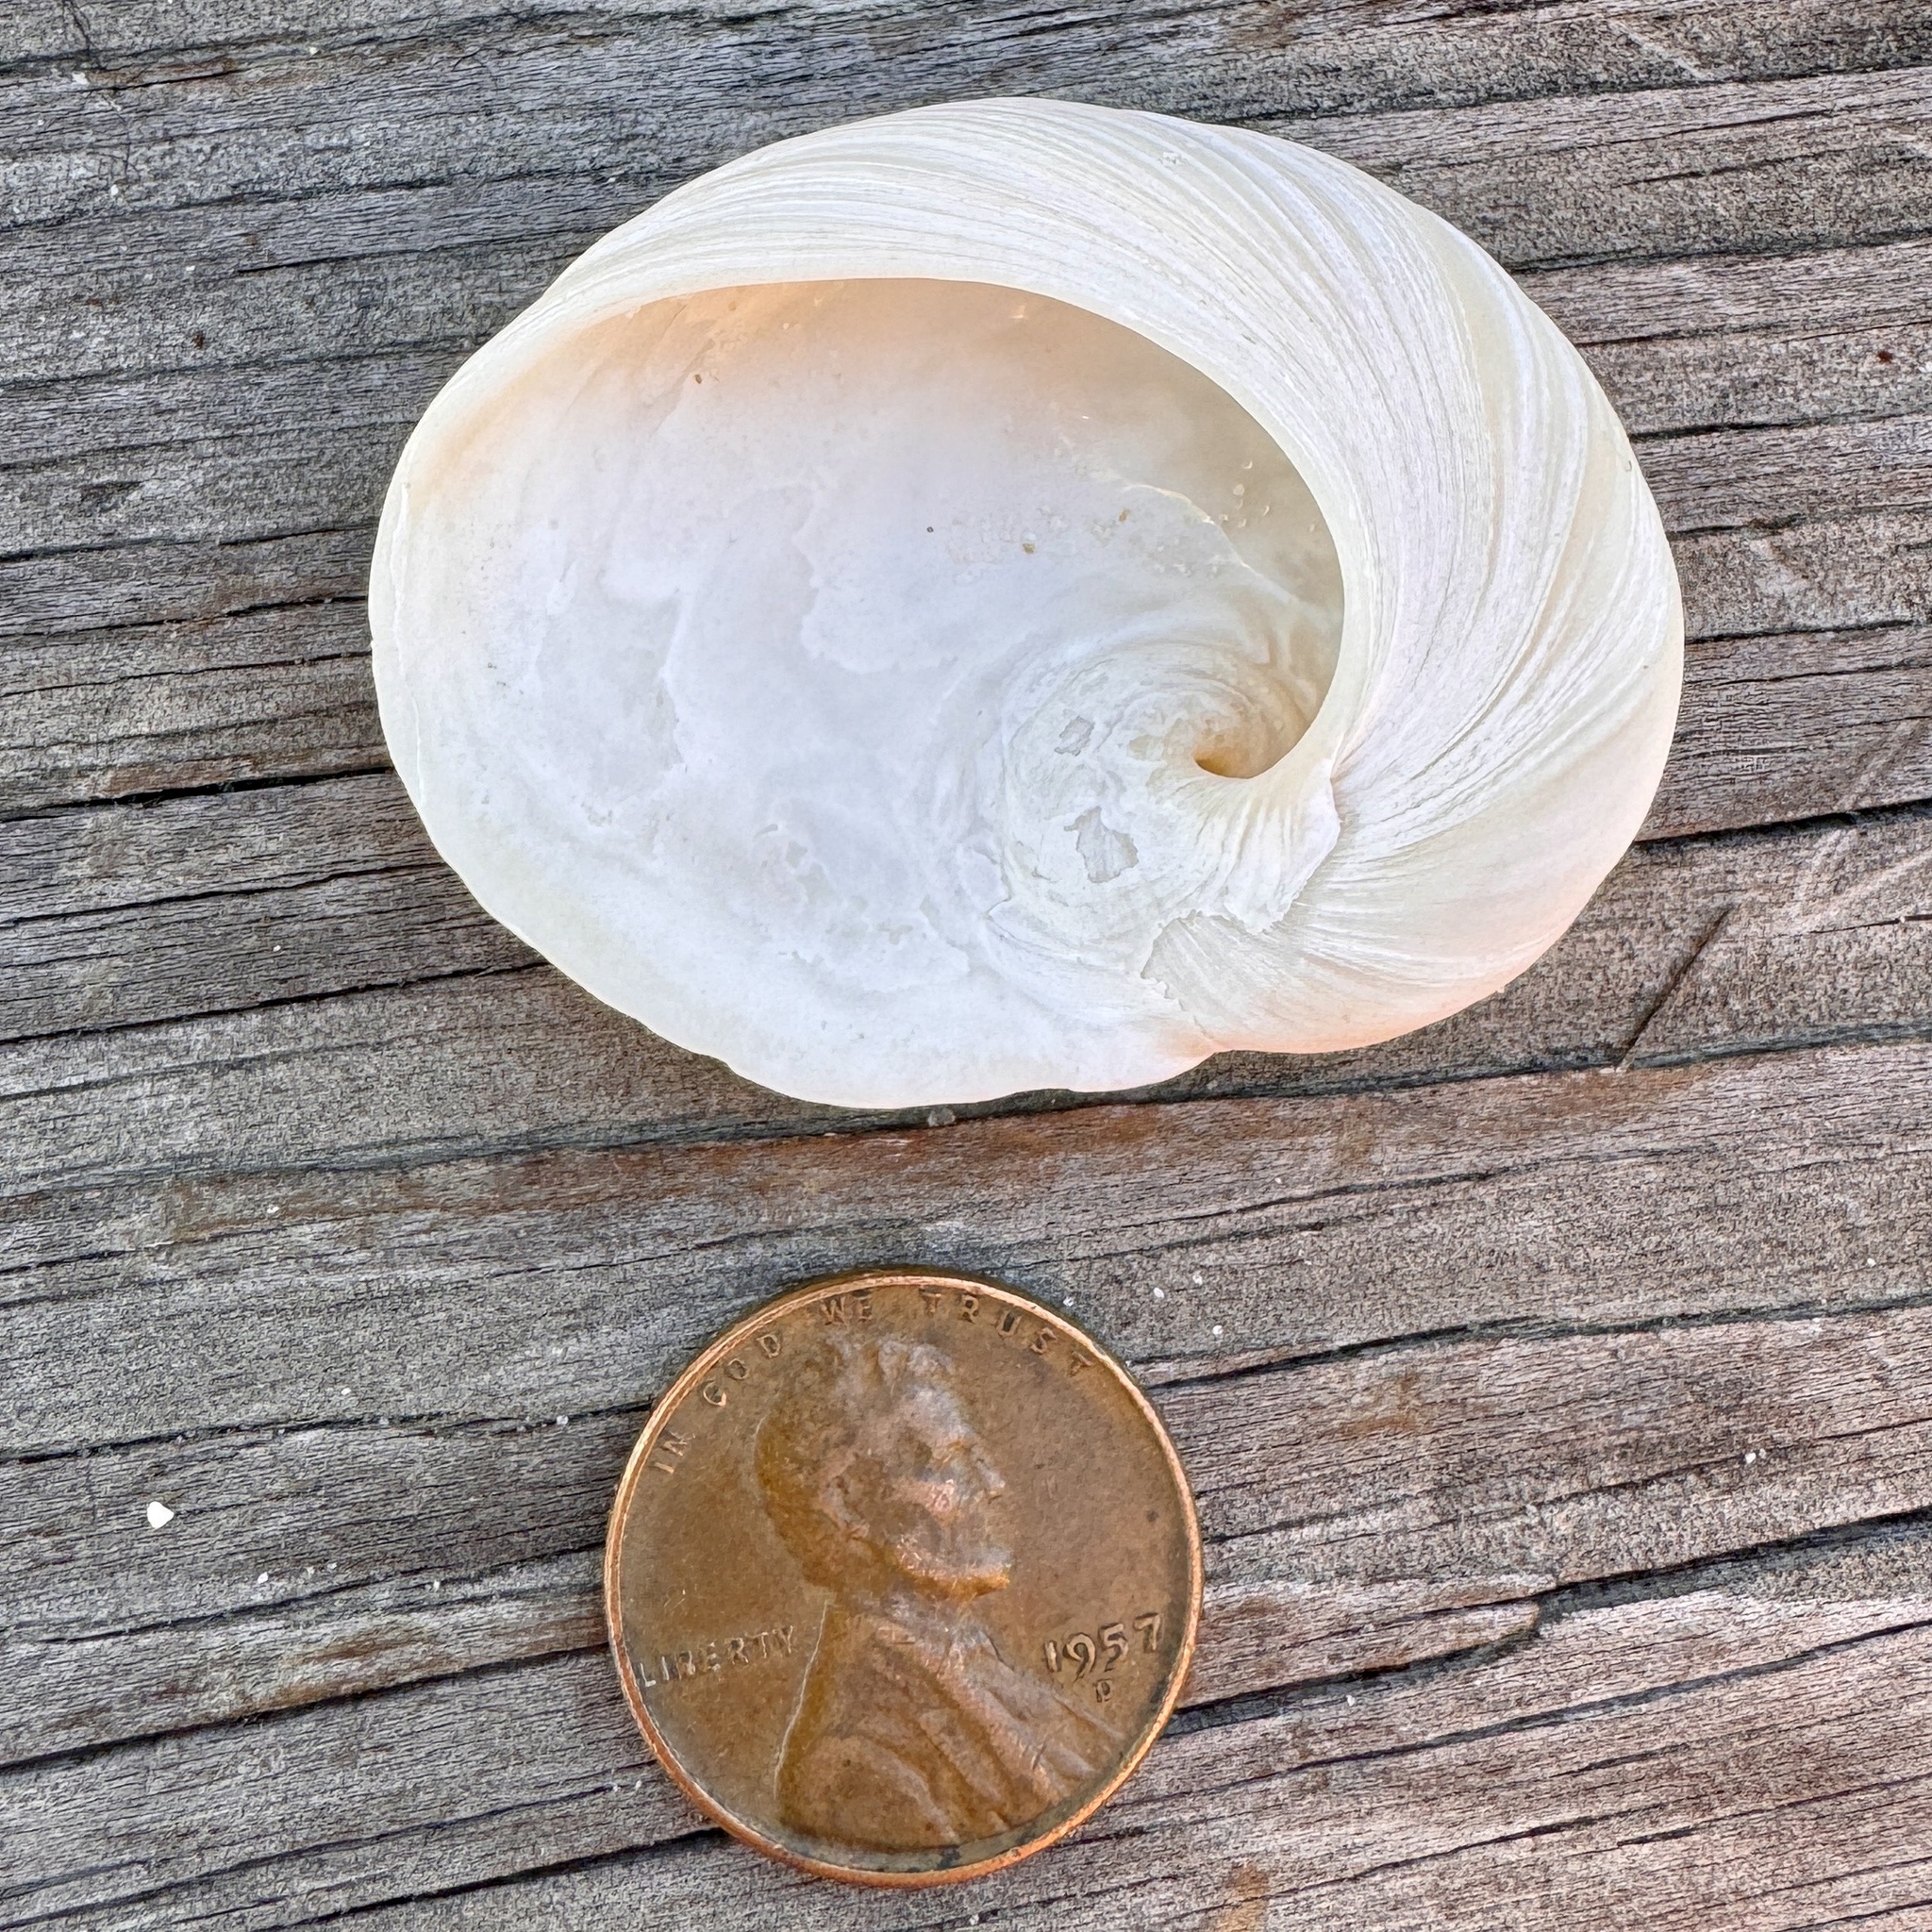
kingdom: Animalia
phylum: Mollusca
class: Gastropoda
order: Littorinimorpha
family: Naticidae
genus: Sinum
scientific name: Sinum perspectivum
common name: White baby ear
